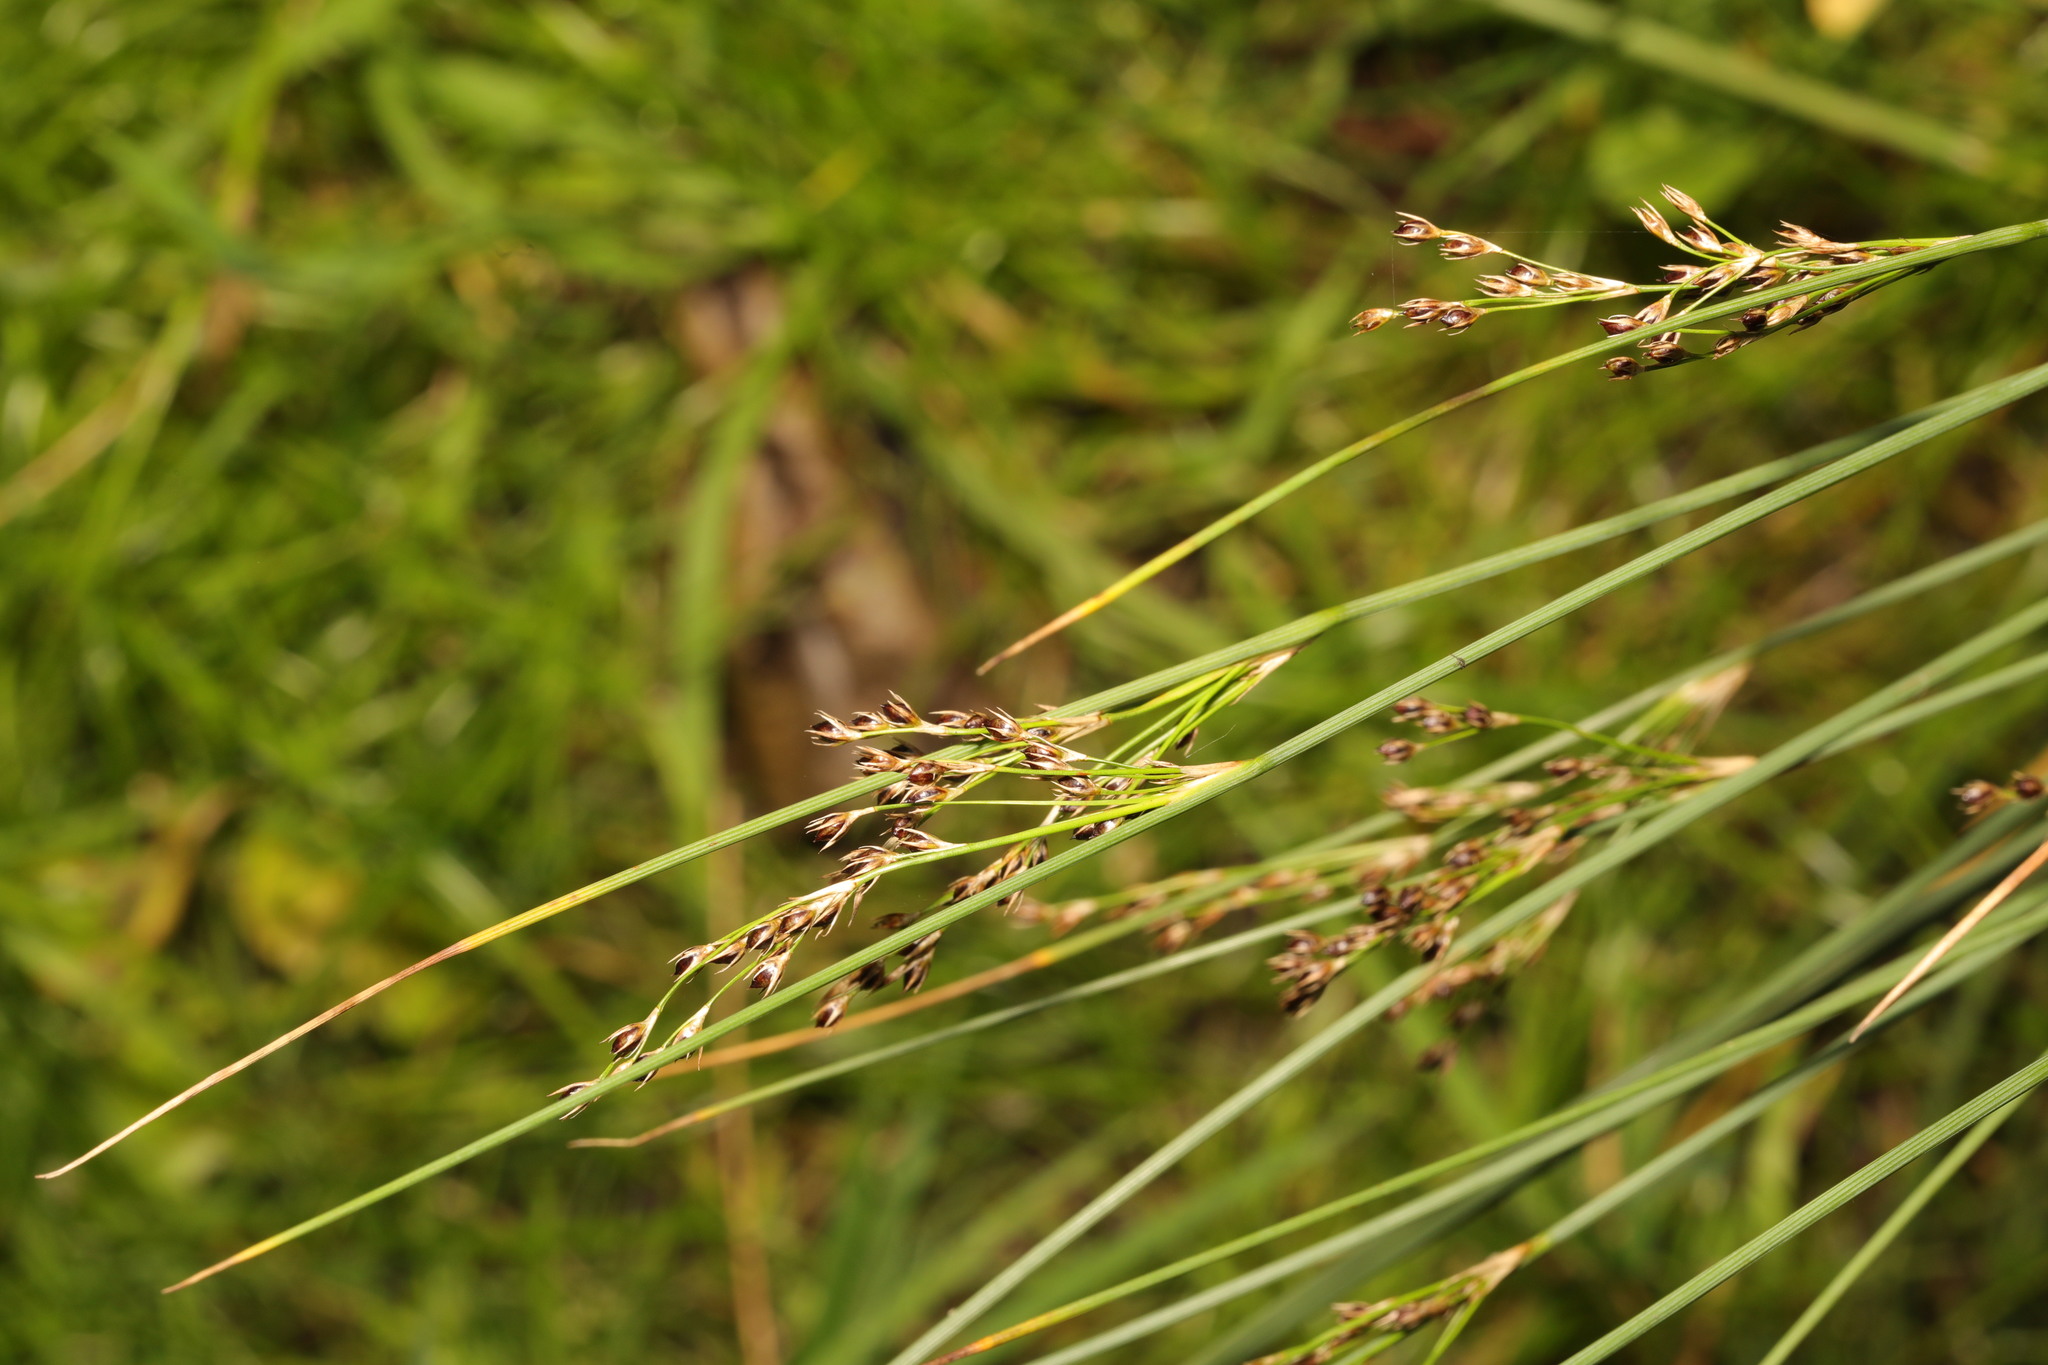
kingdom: Plantae
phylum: Tracheophyta
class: Liliopsida
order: Poales
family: Juncaceae
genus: Juncus
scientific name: Juncus inflexus
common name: Hard rush
